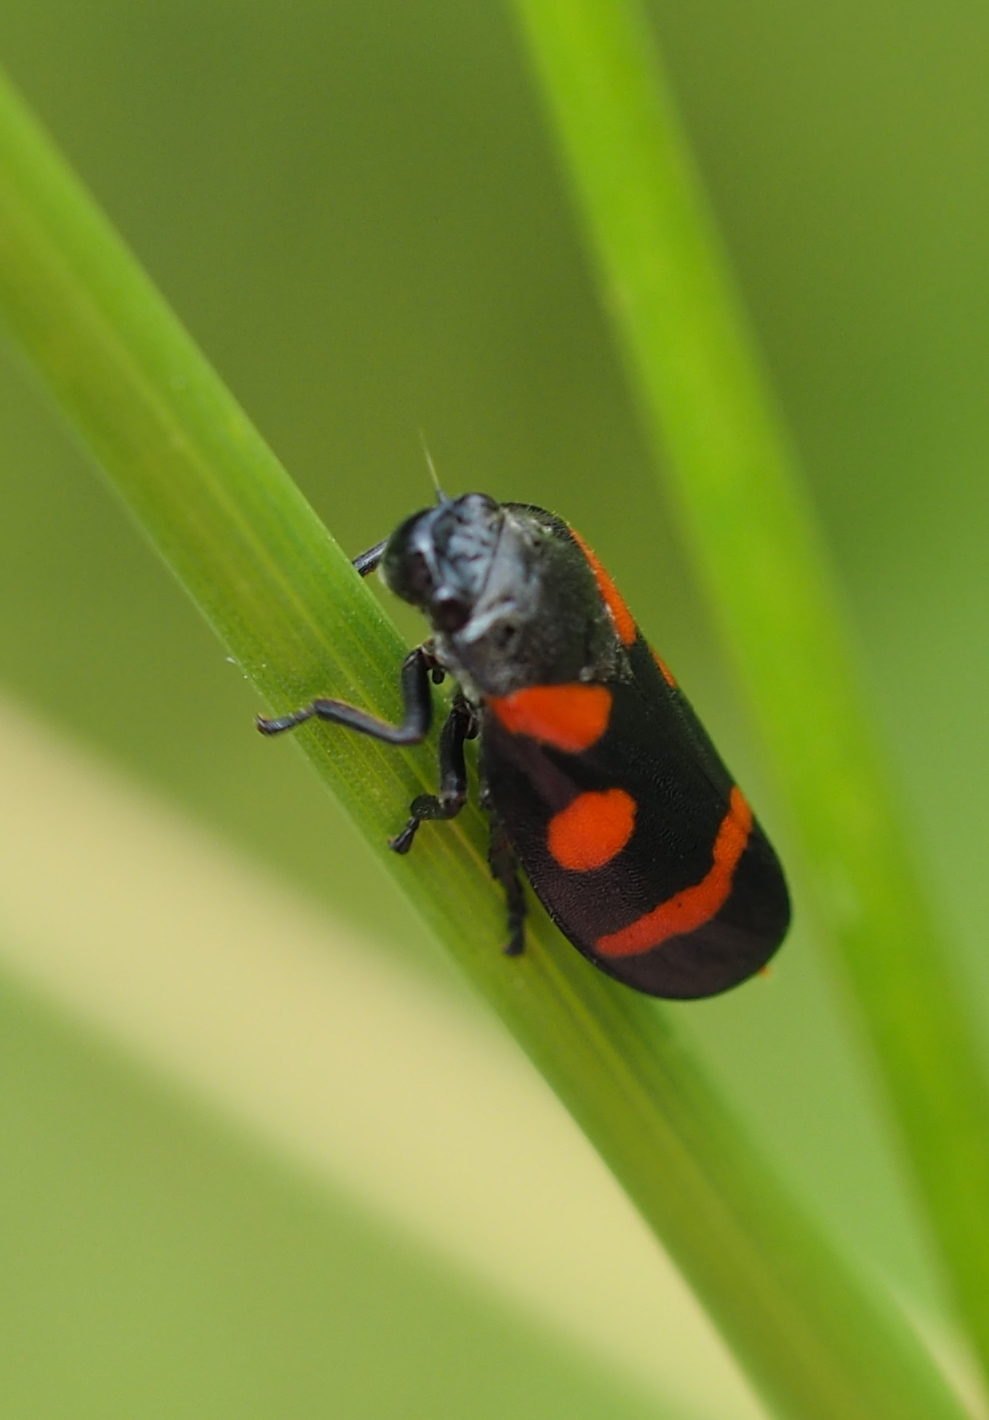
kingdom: Animalia
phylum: Arthropoda
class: Insecta
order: Hemiptera
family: Cercopidae
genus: Cercopis
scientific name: Cercopis sanguinolenta
